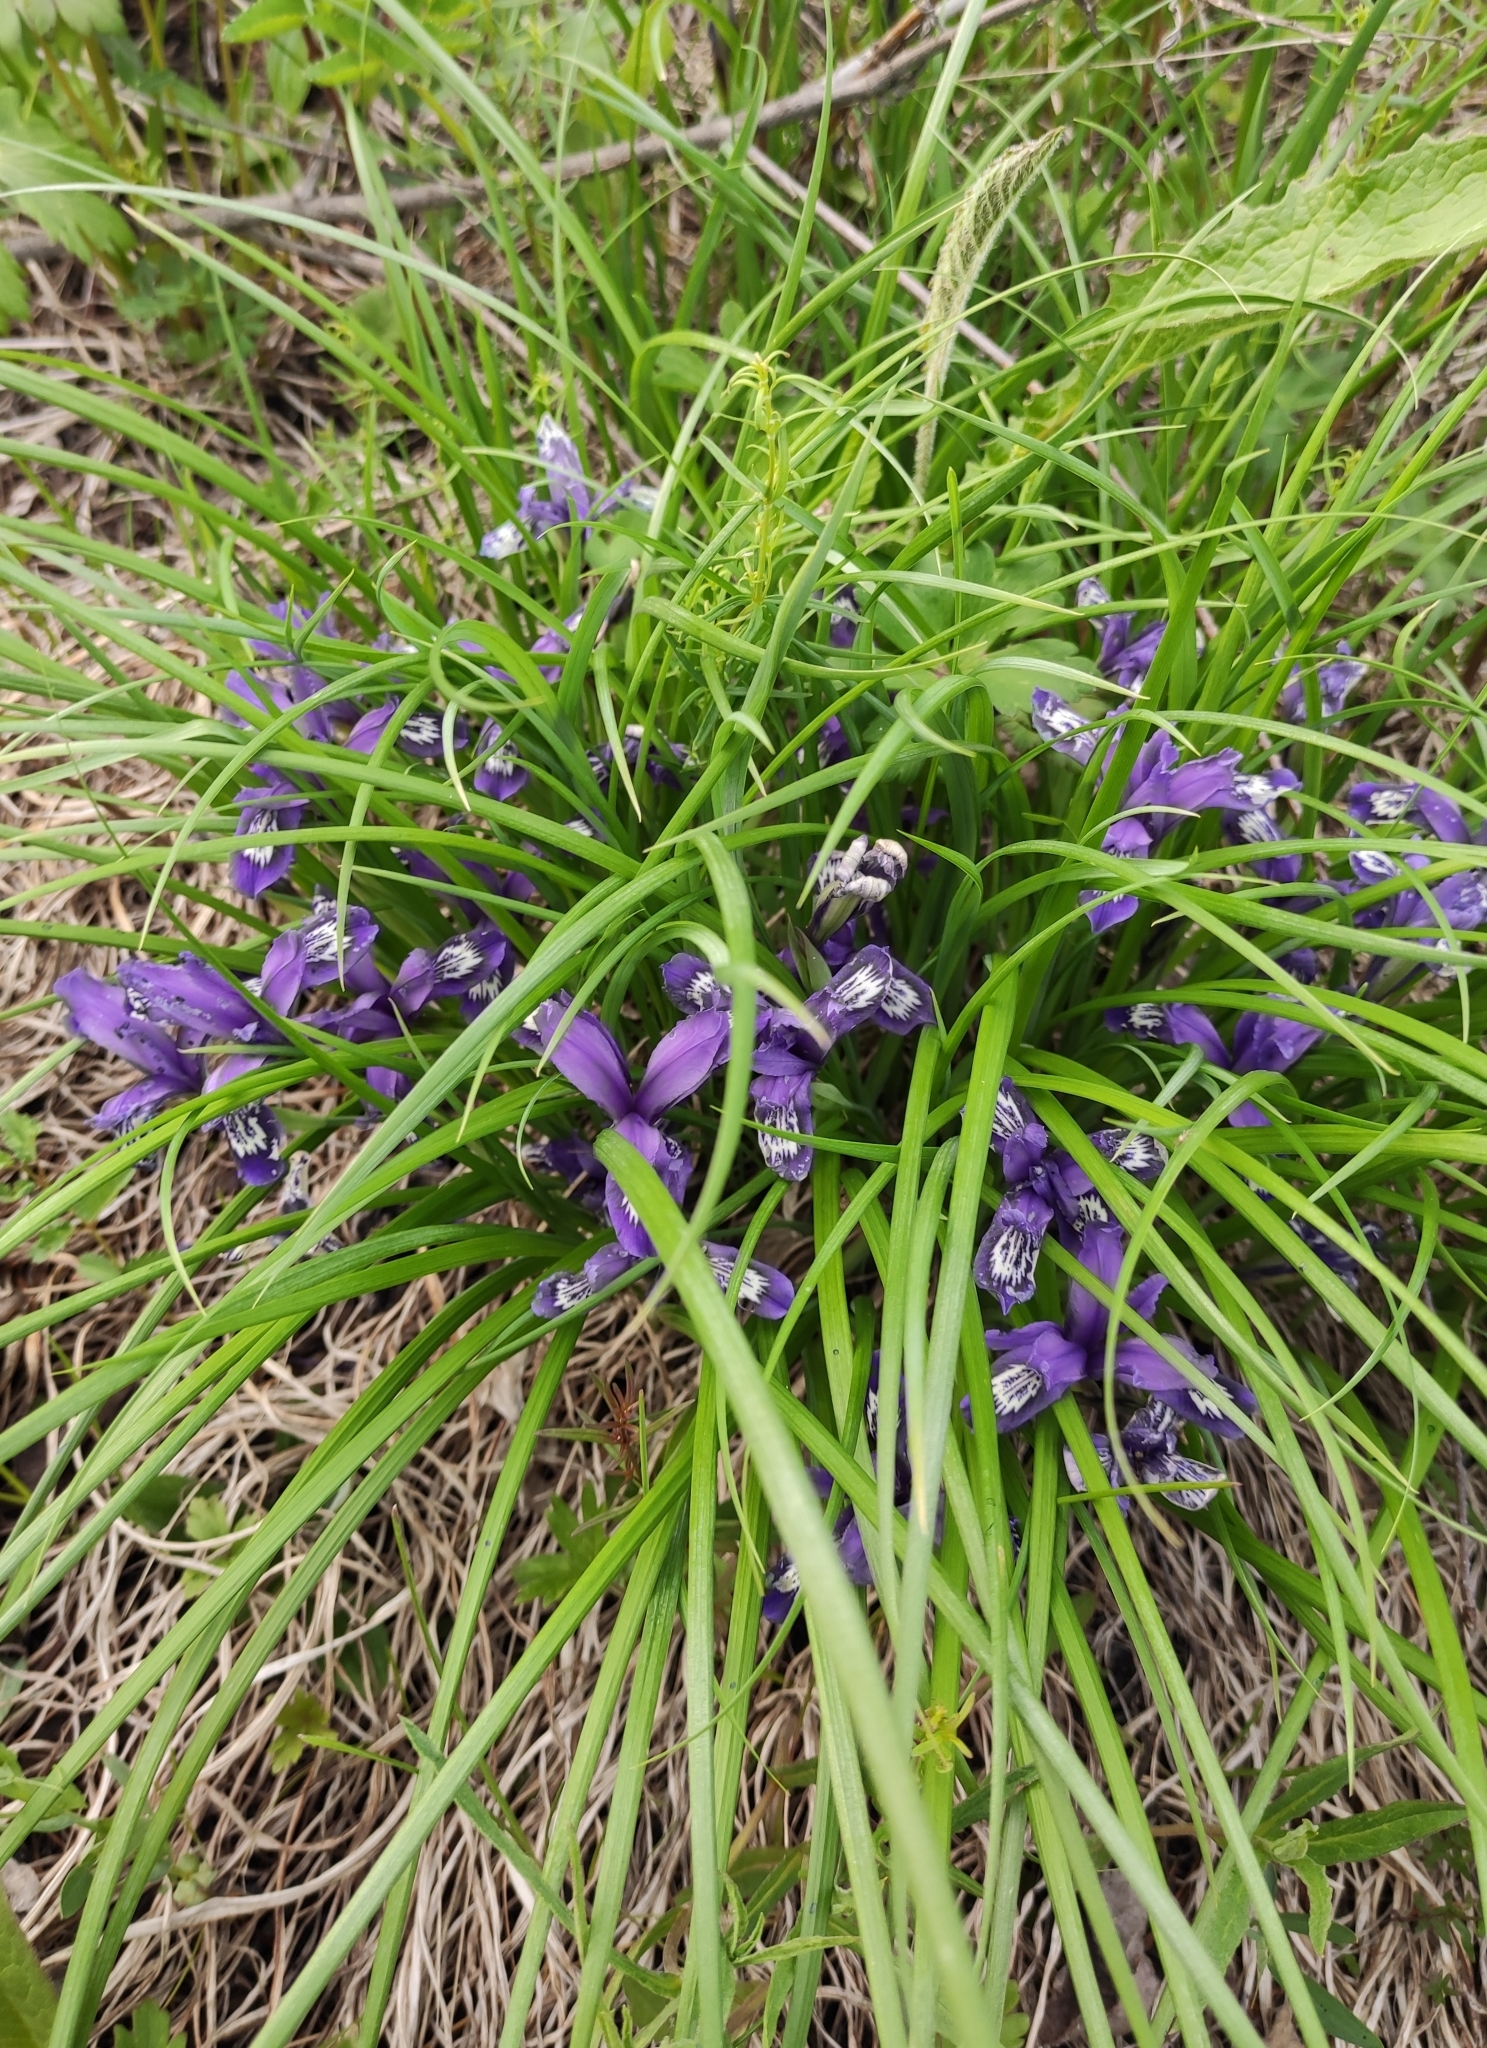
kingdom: Plantae
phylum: Tracheophyta
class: Liliopsida
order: Asparagales
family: Iridaceae
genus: Iris
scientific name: Iris ruthenica
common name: Purple-bract iris
